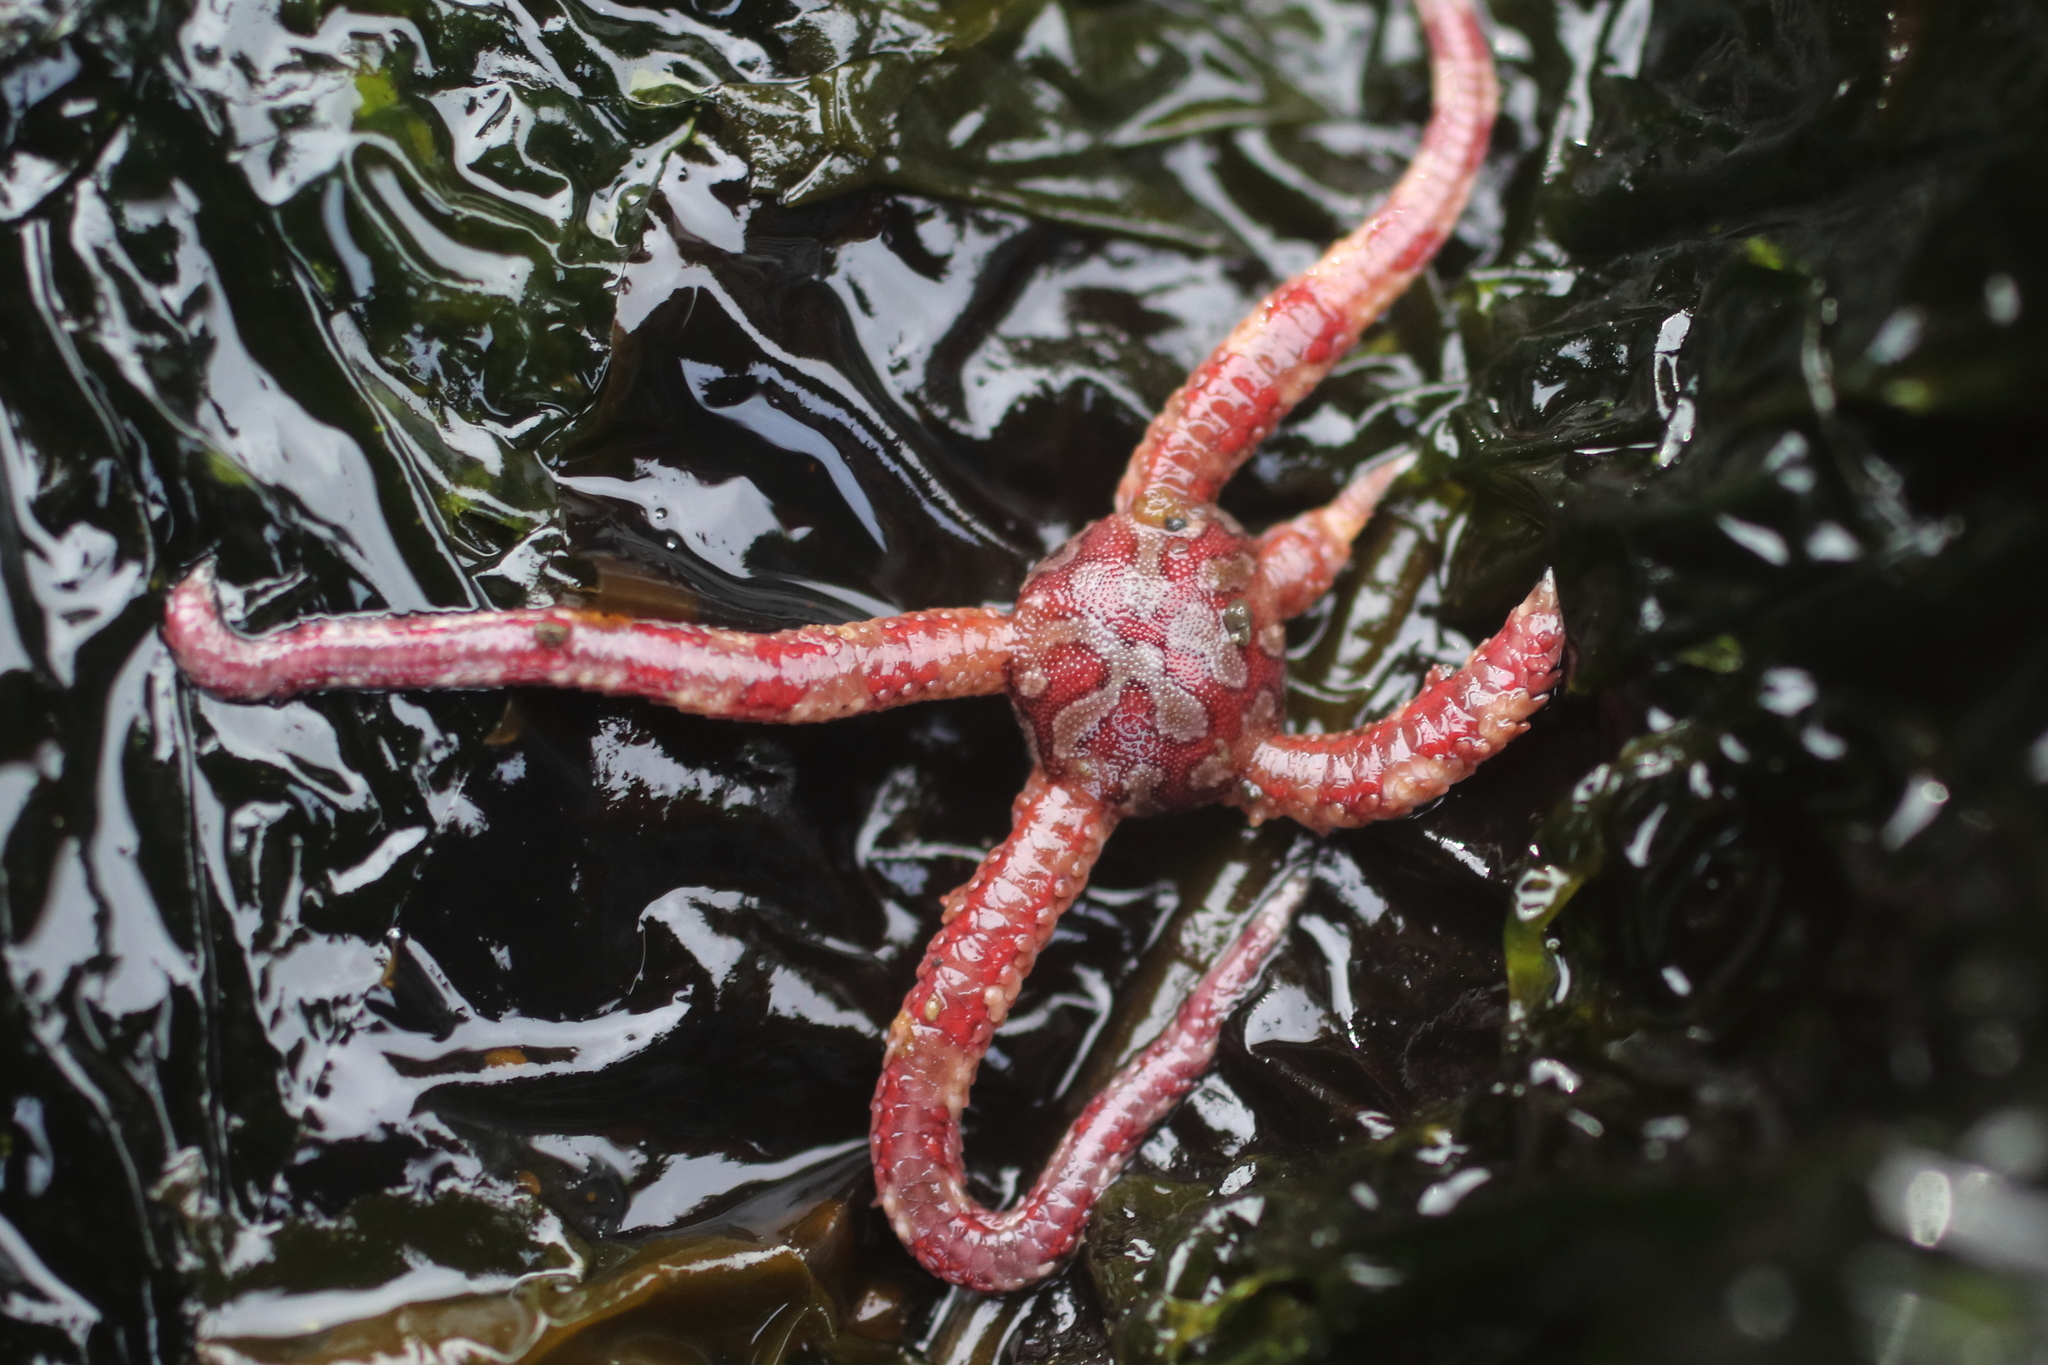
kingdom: Animalia
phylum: Echinodermata
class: Ophiuroidea
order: Amphilepidida
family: Ophiopholidae
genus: Ophiopholis
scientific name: Ophiopholis kennerlyi
